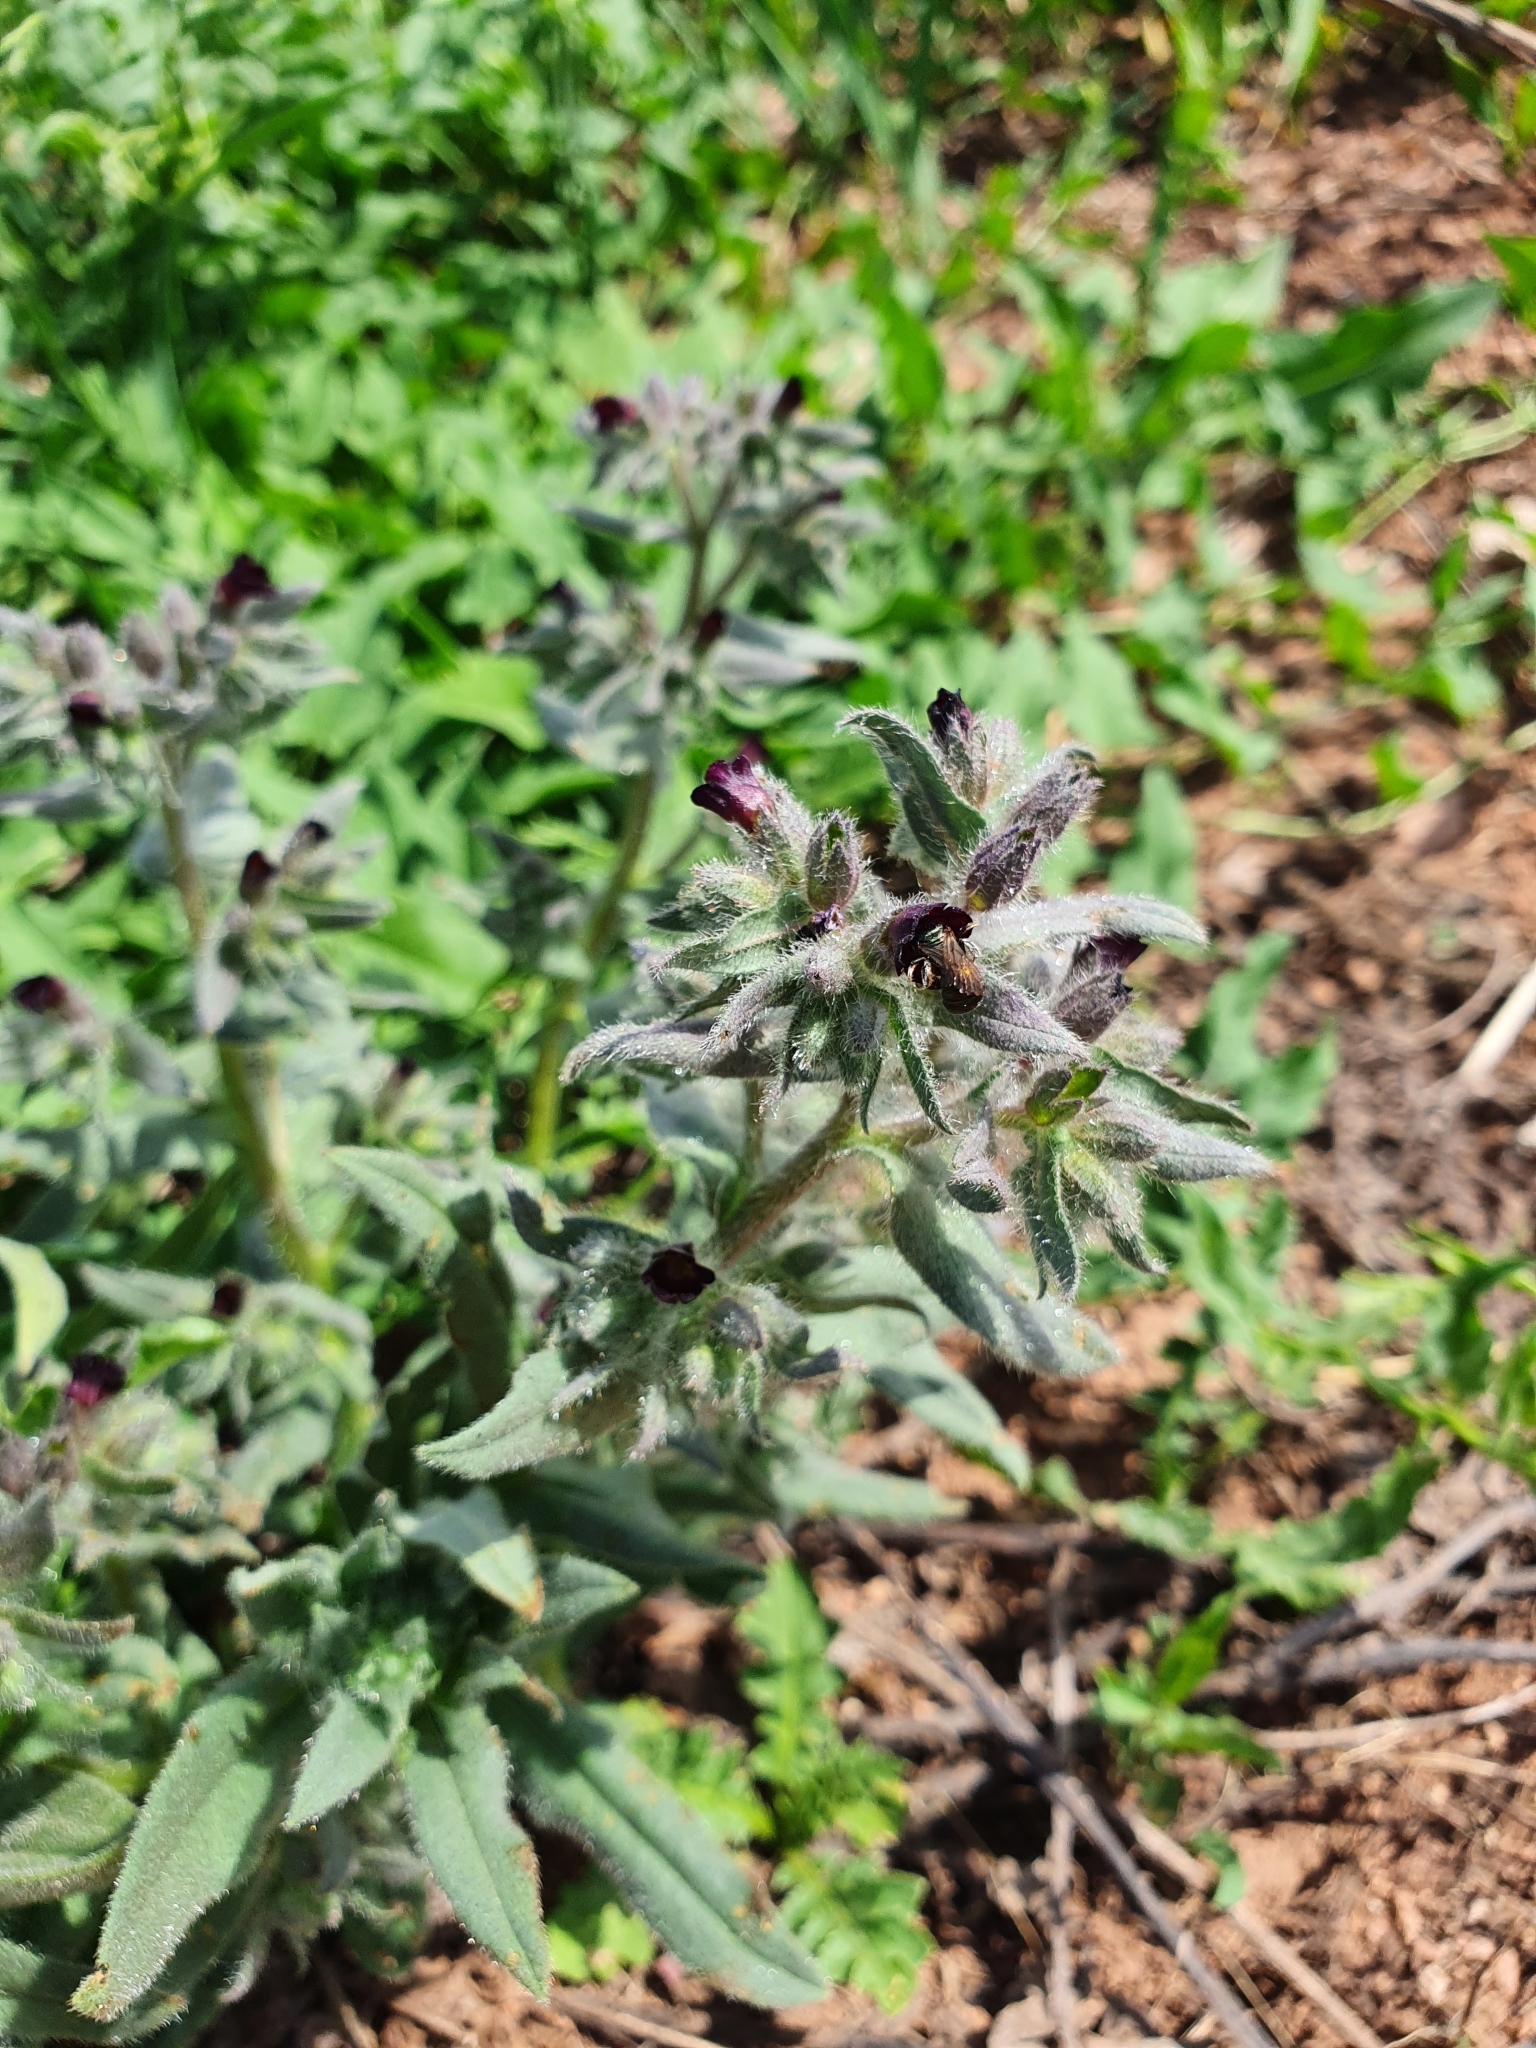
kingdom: Plantae
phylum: Tracheophyta
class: Magnoliopsida
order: Boraginales
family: Boraginaceae
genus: Nonea
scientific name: Nonea pulla
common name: Brown nonea
